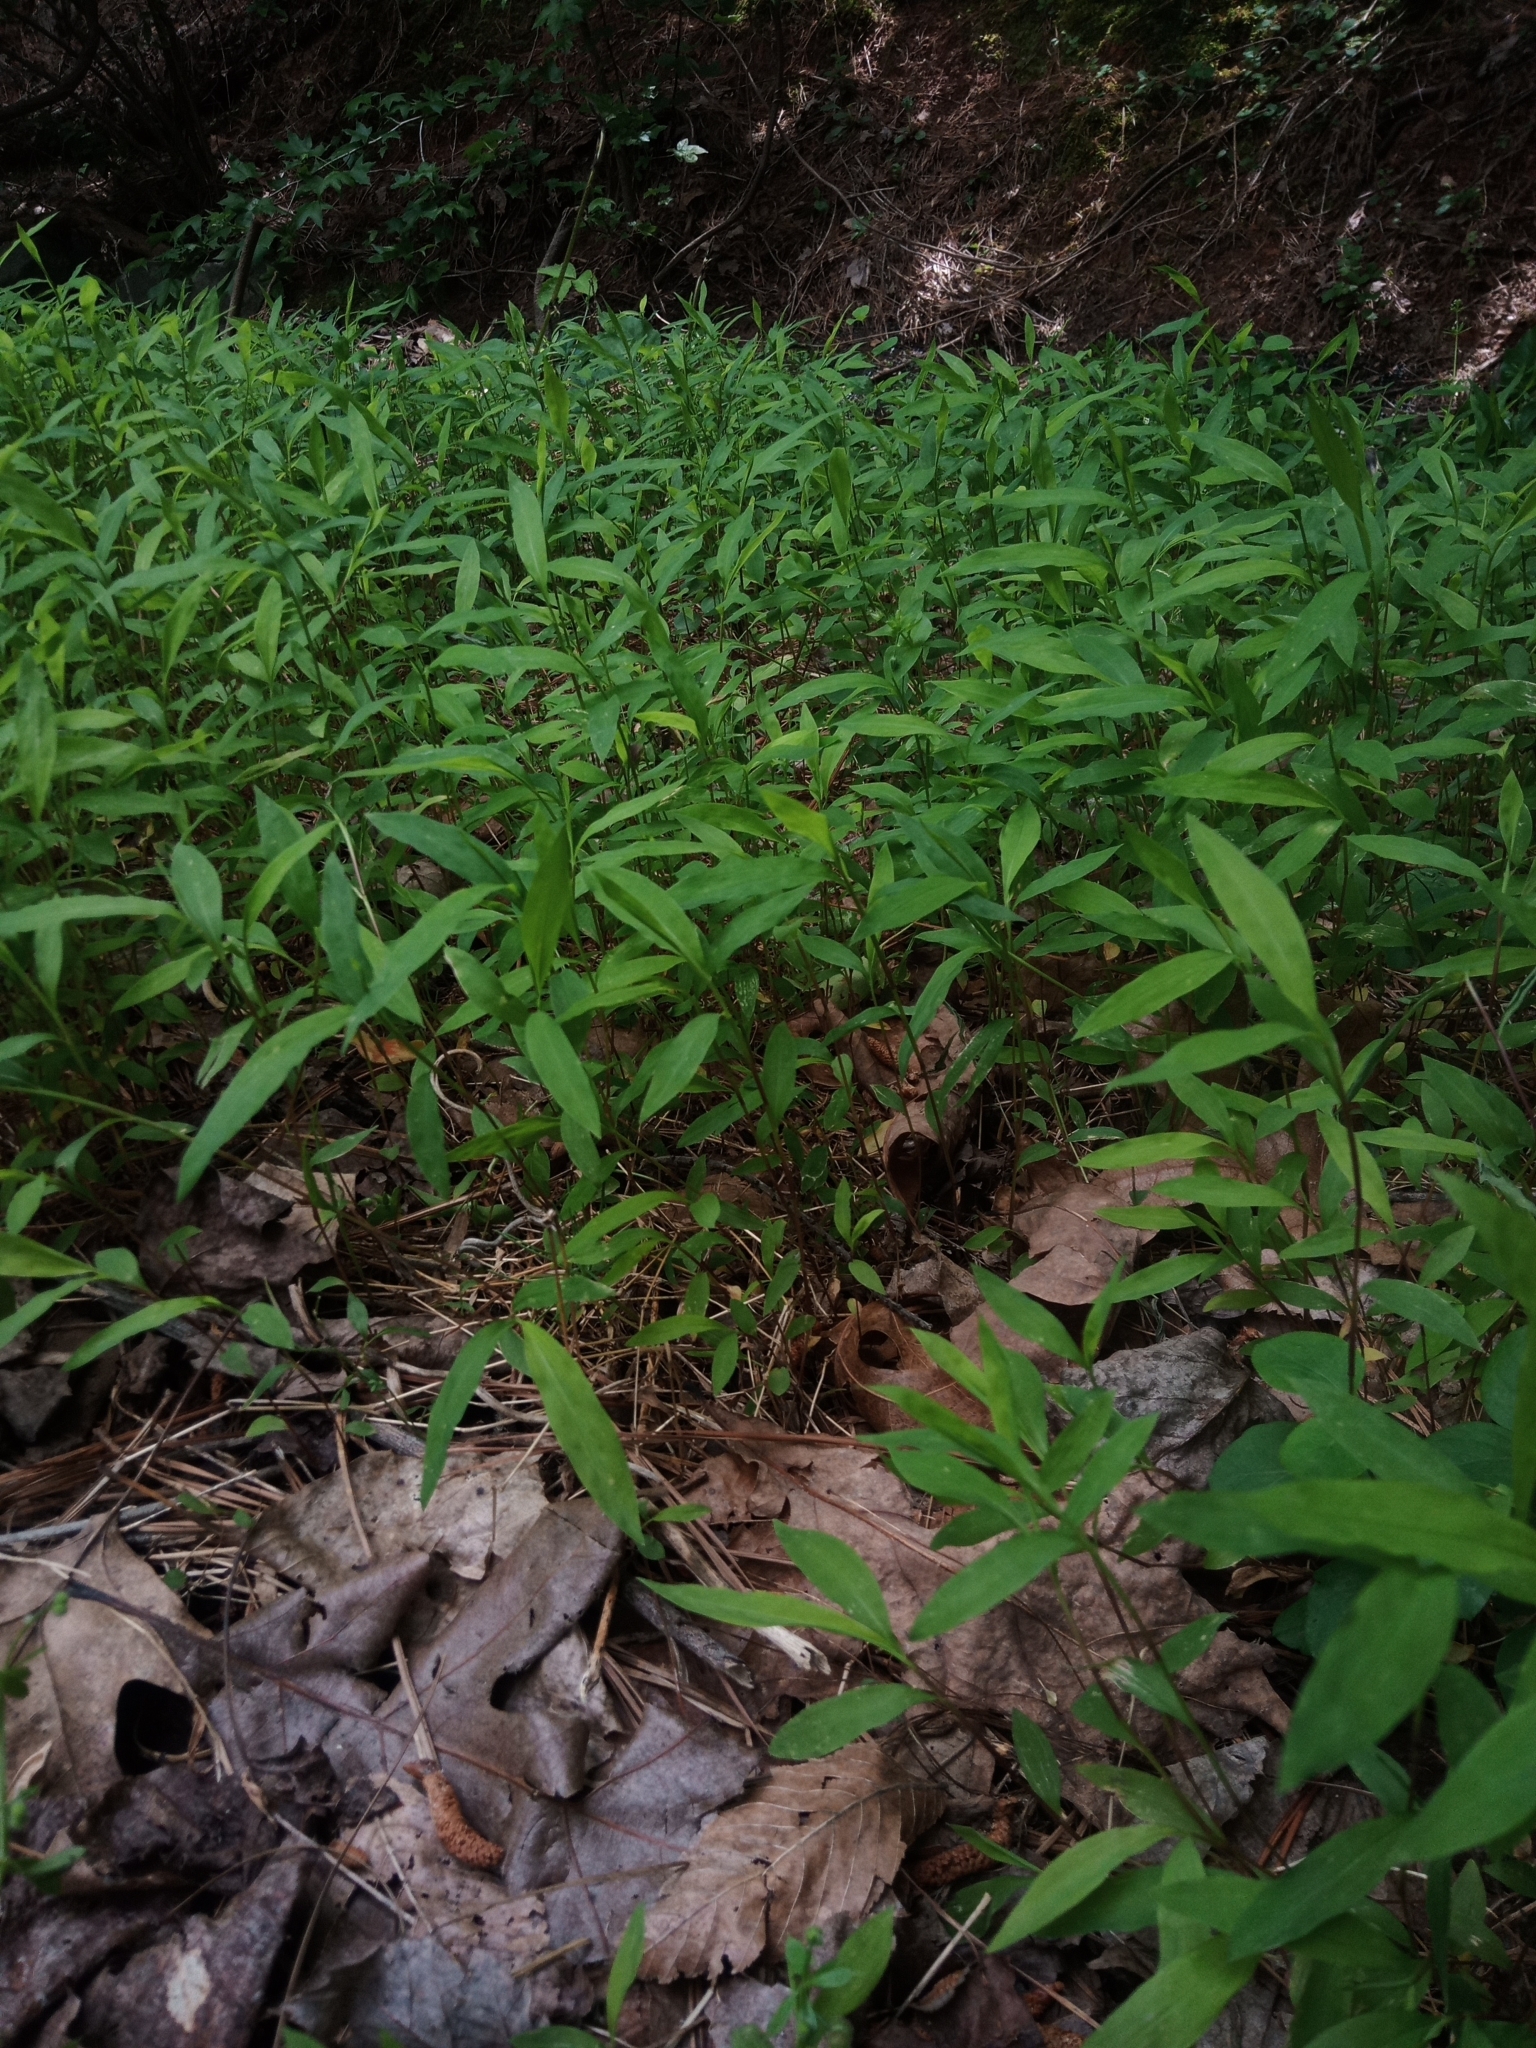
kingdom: Plantae
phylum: Tracheophyta
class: Liliopsida
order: Poales
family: Poaceae
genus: Microstegium
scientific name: Microstegium vimineum
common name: Japanese stiltgrass
